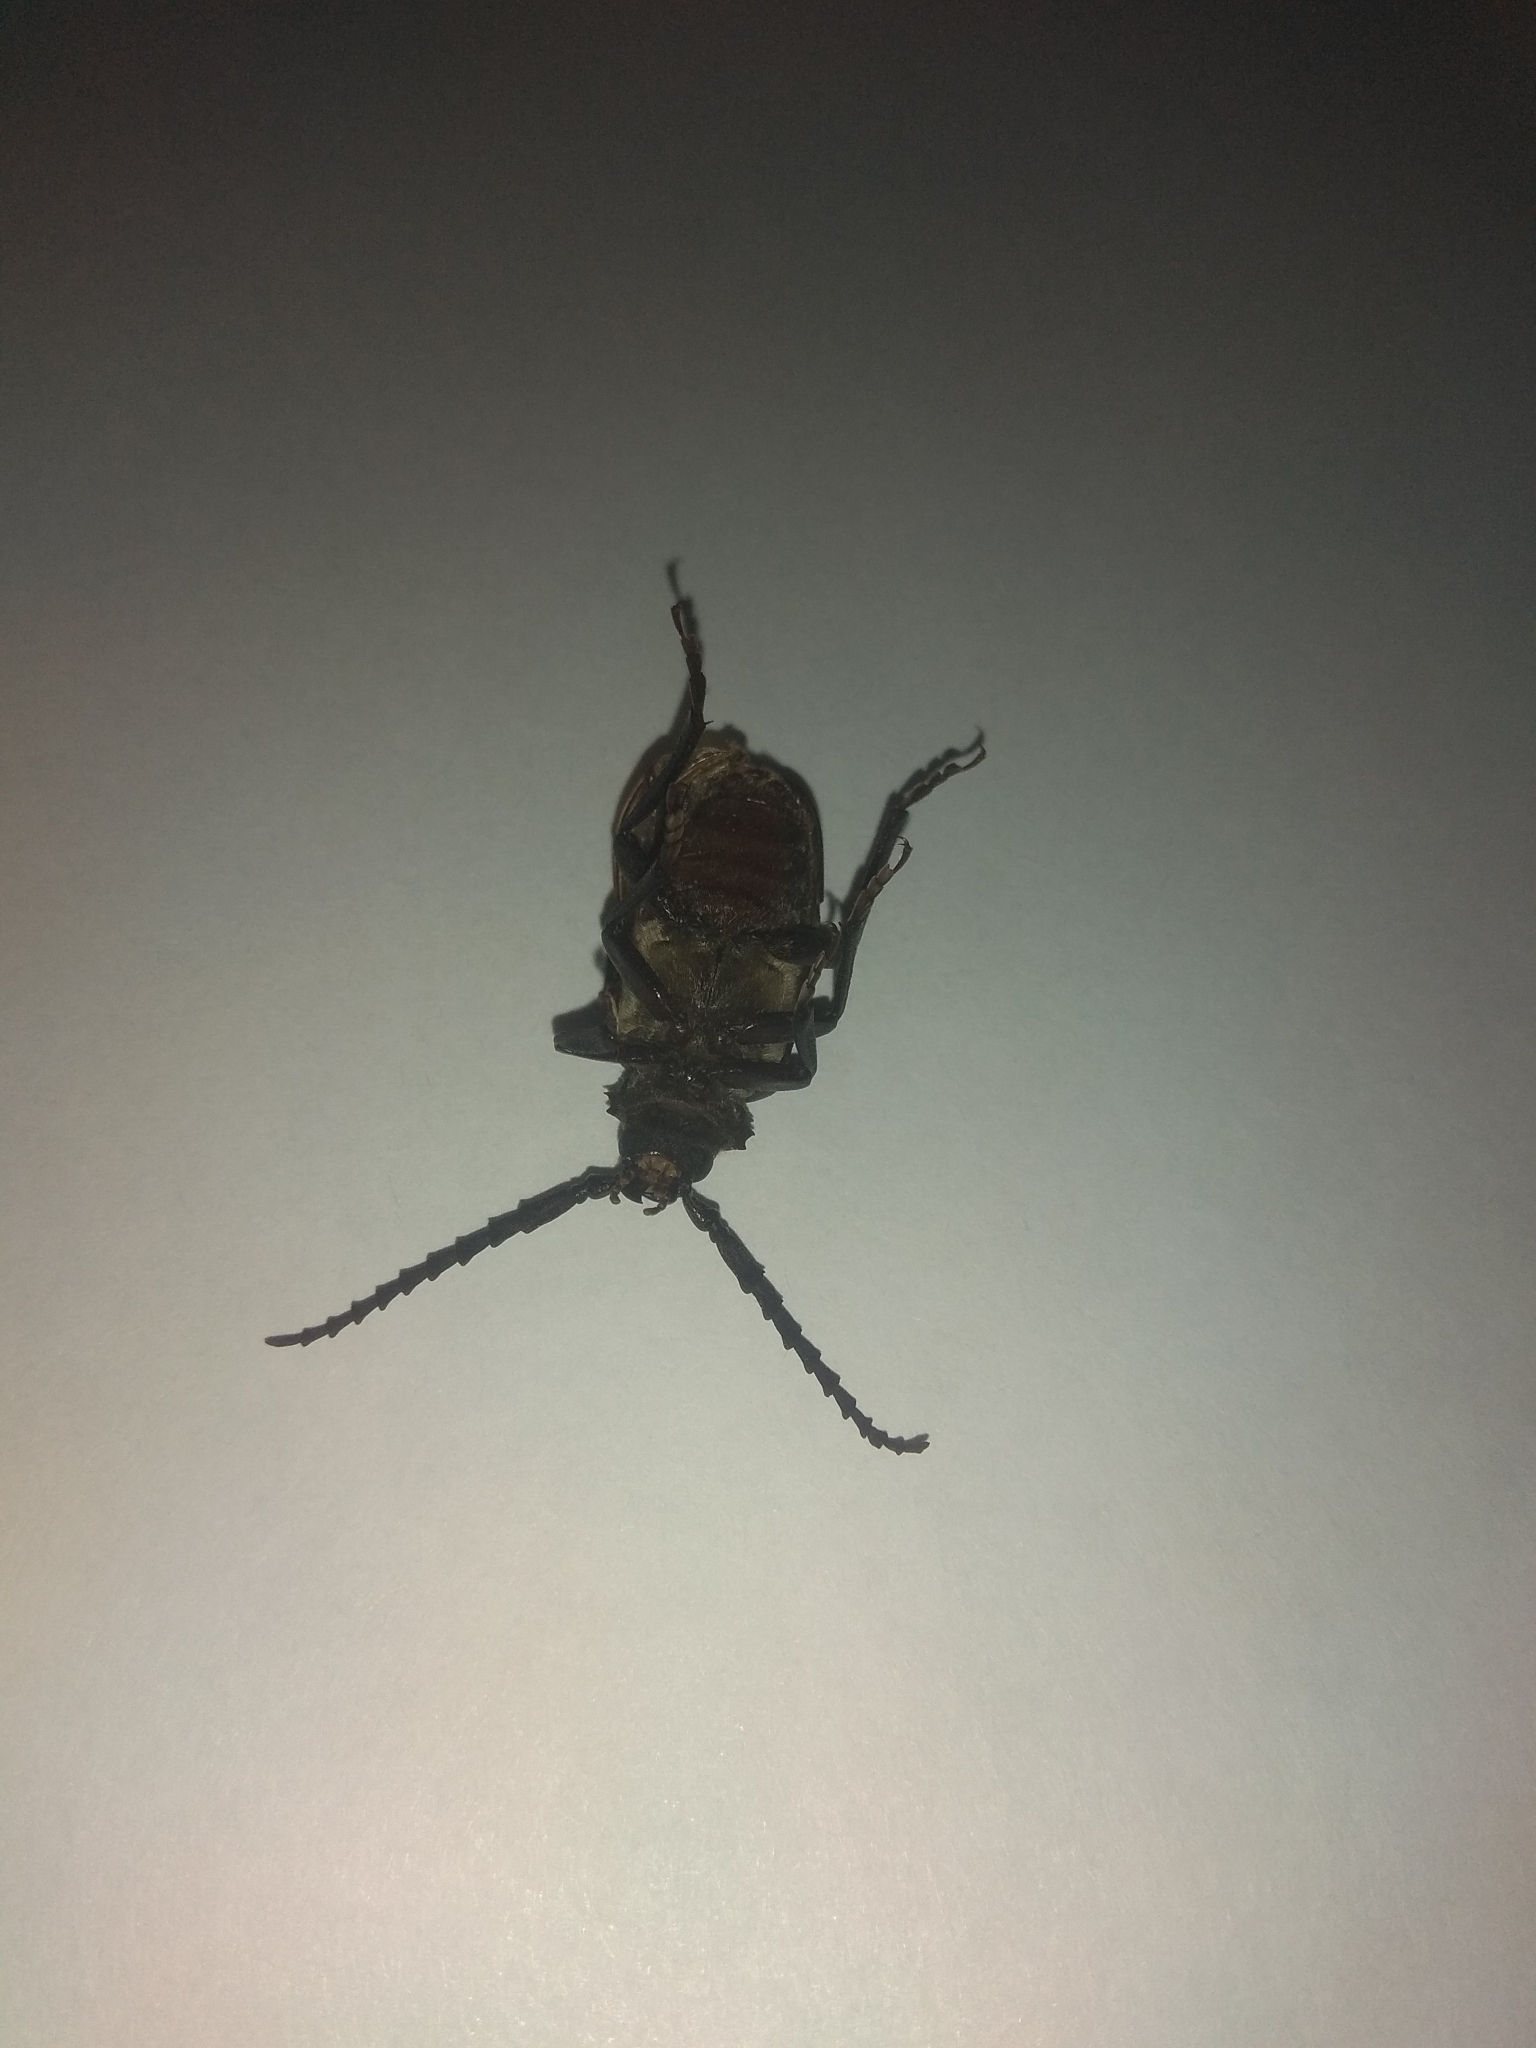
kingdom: Animalia
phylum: Arthropoda
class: Insecta
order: Coleoptera
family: Cerambycidae
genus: Prionus
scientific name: Prionus coriarius
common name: Tanner beetle
